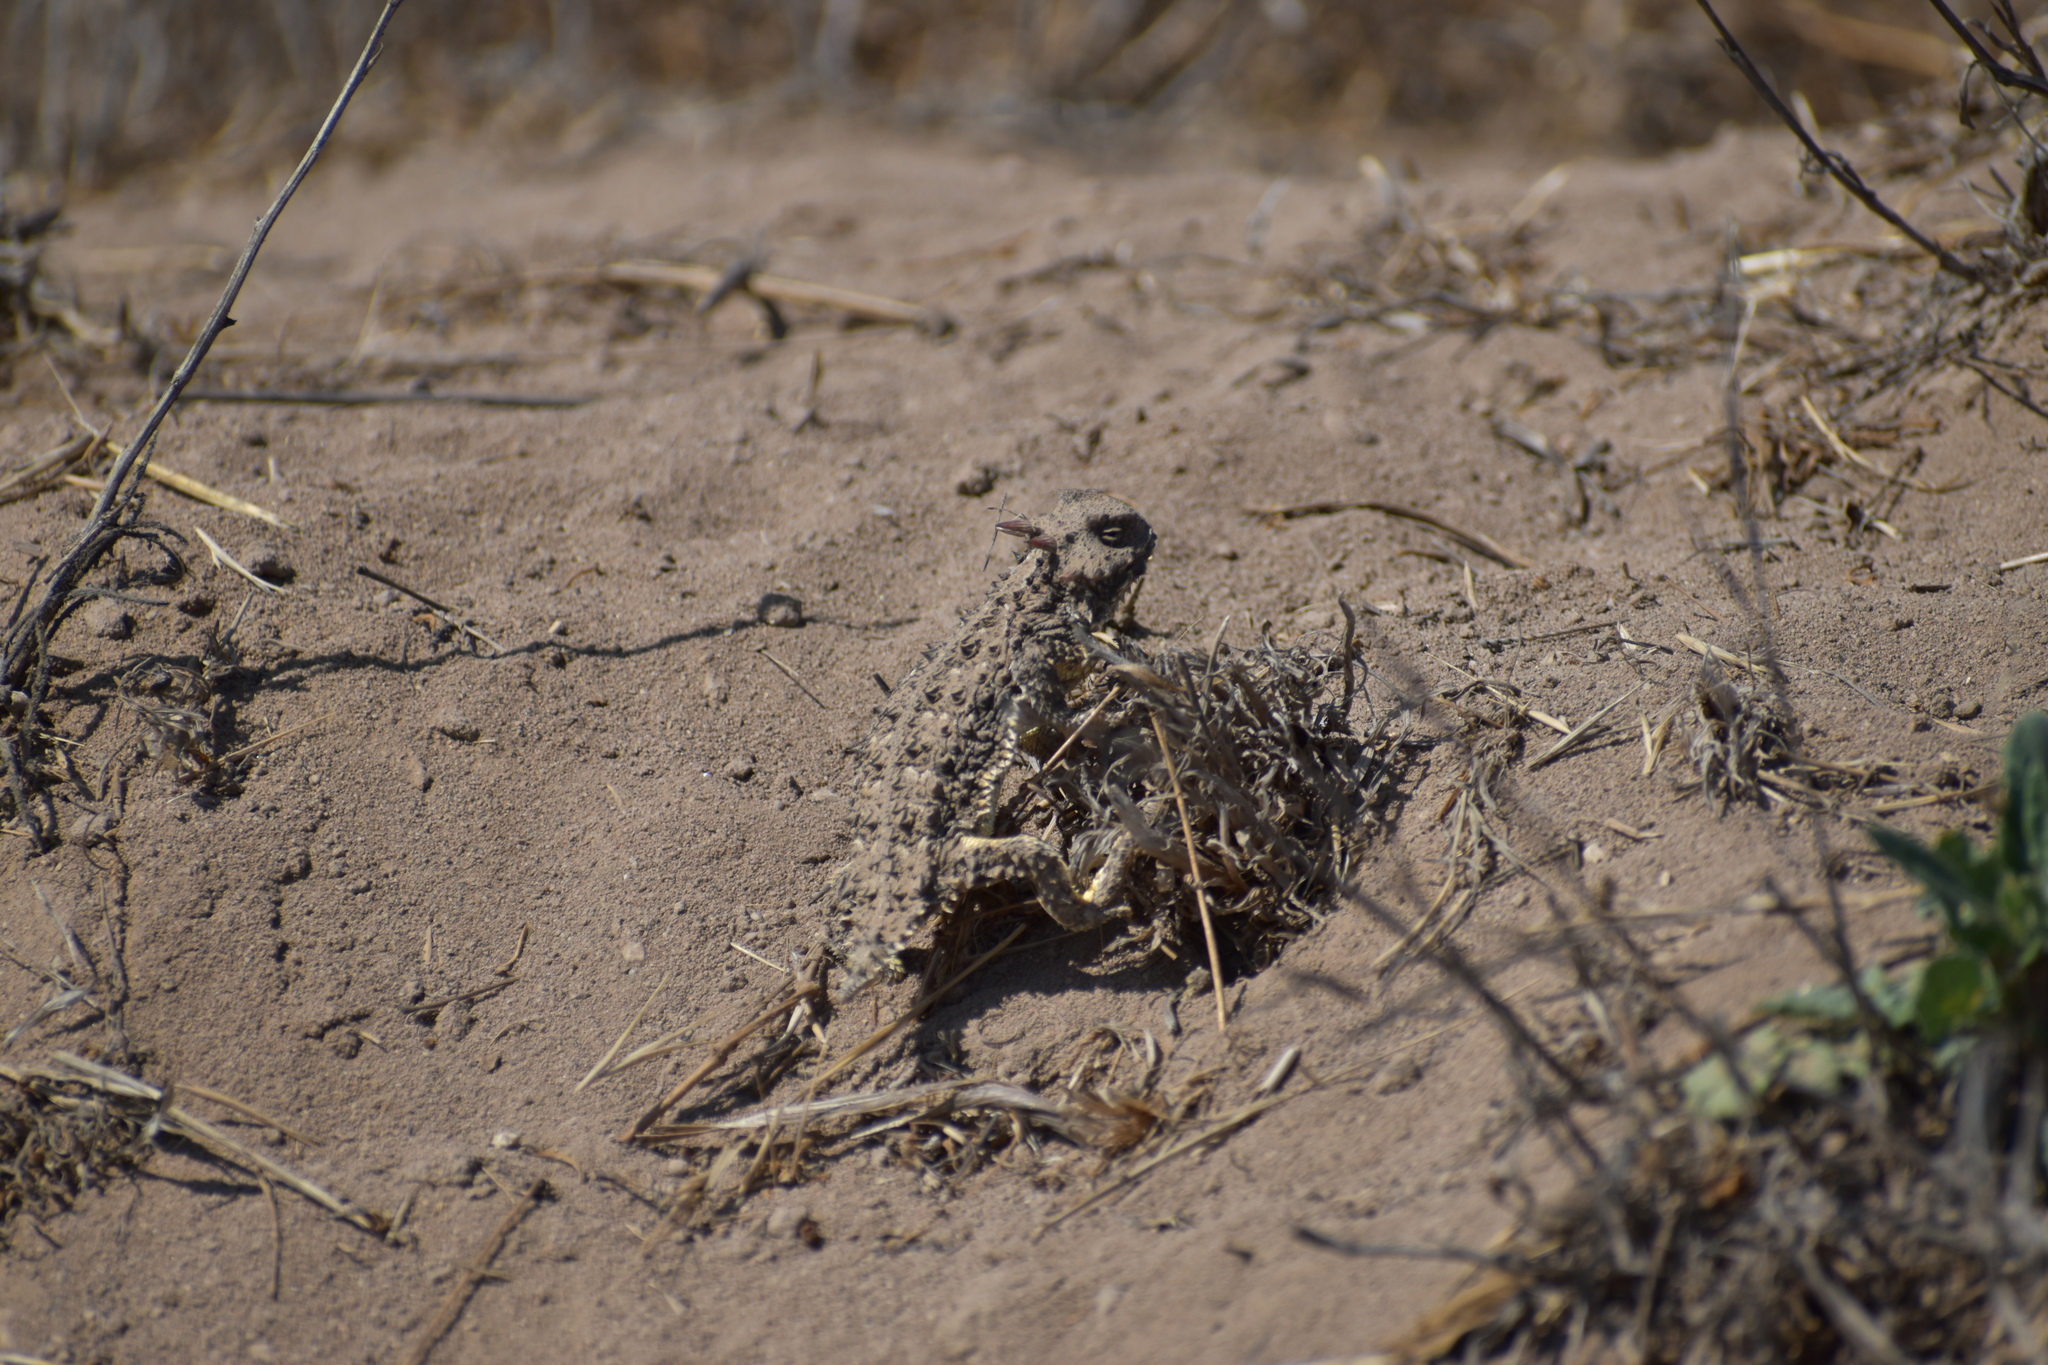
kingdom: Animalia
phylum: Chordata
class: Squamata
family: Phrynosomatidae
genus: Phrynosoma
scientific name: Phrynosoma blainvillii
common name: San diego horned lizard
